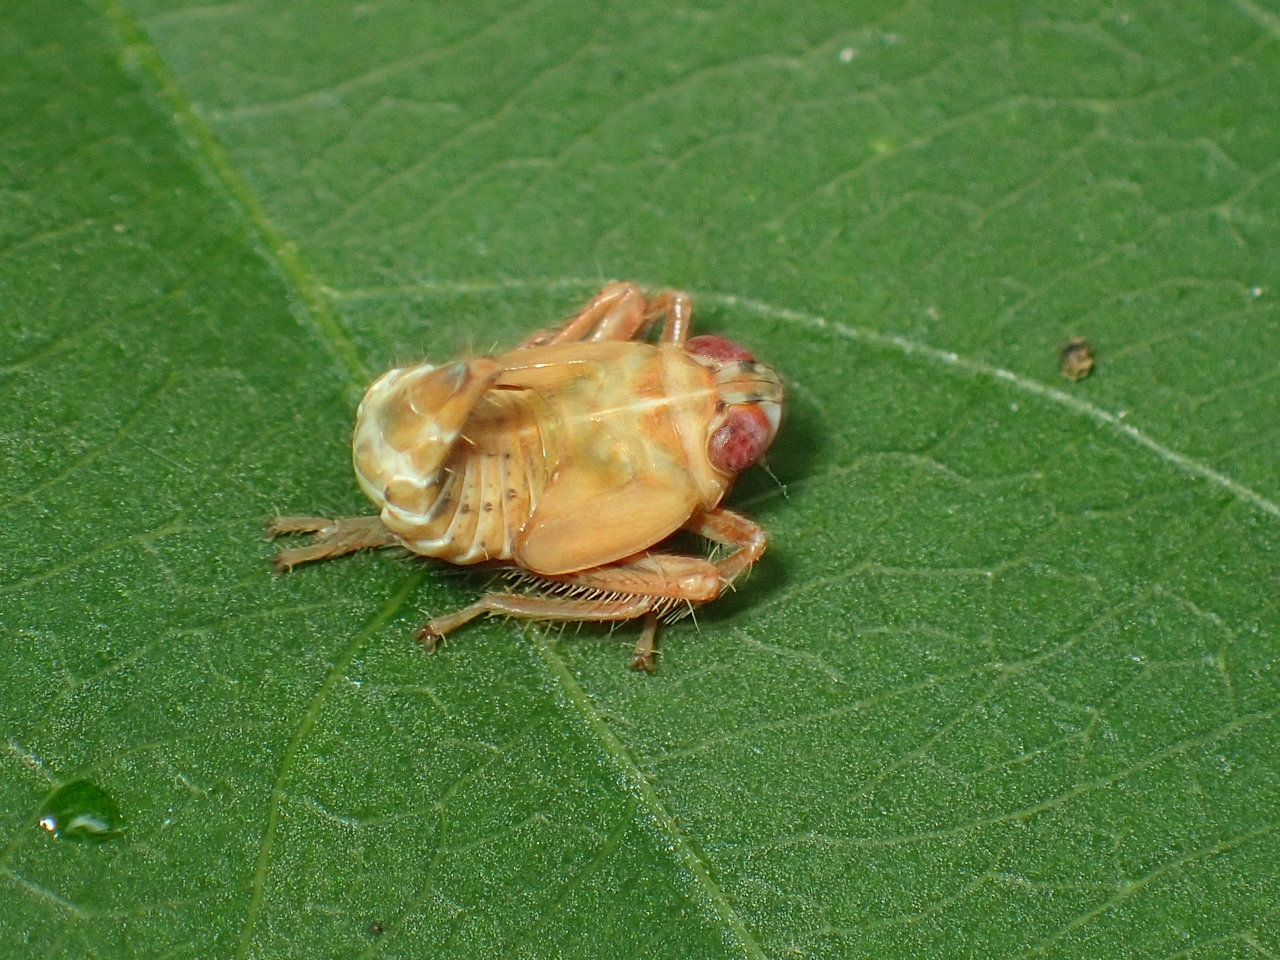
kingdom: Animalia
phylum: Arthropoda
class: Insecta
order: Hemiptera
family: Cicadellidae
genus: Jikradia
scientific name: Jikradia olitoria
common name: Coppery leafhopper
